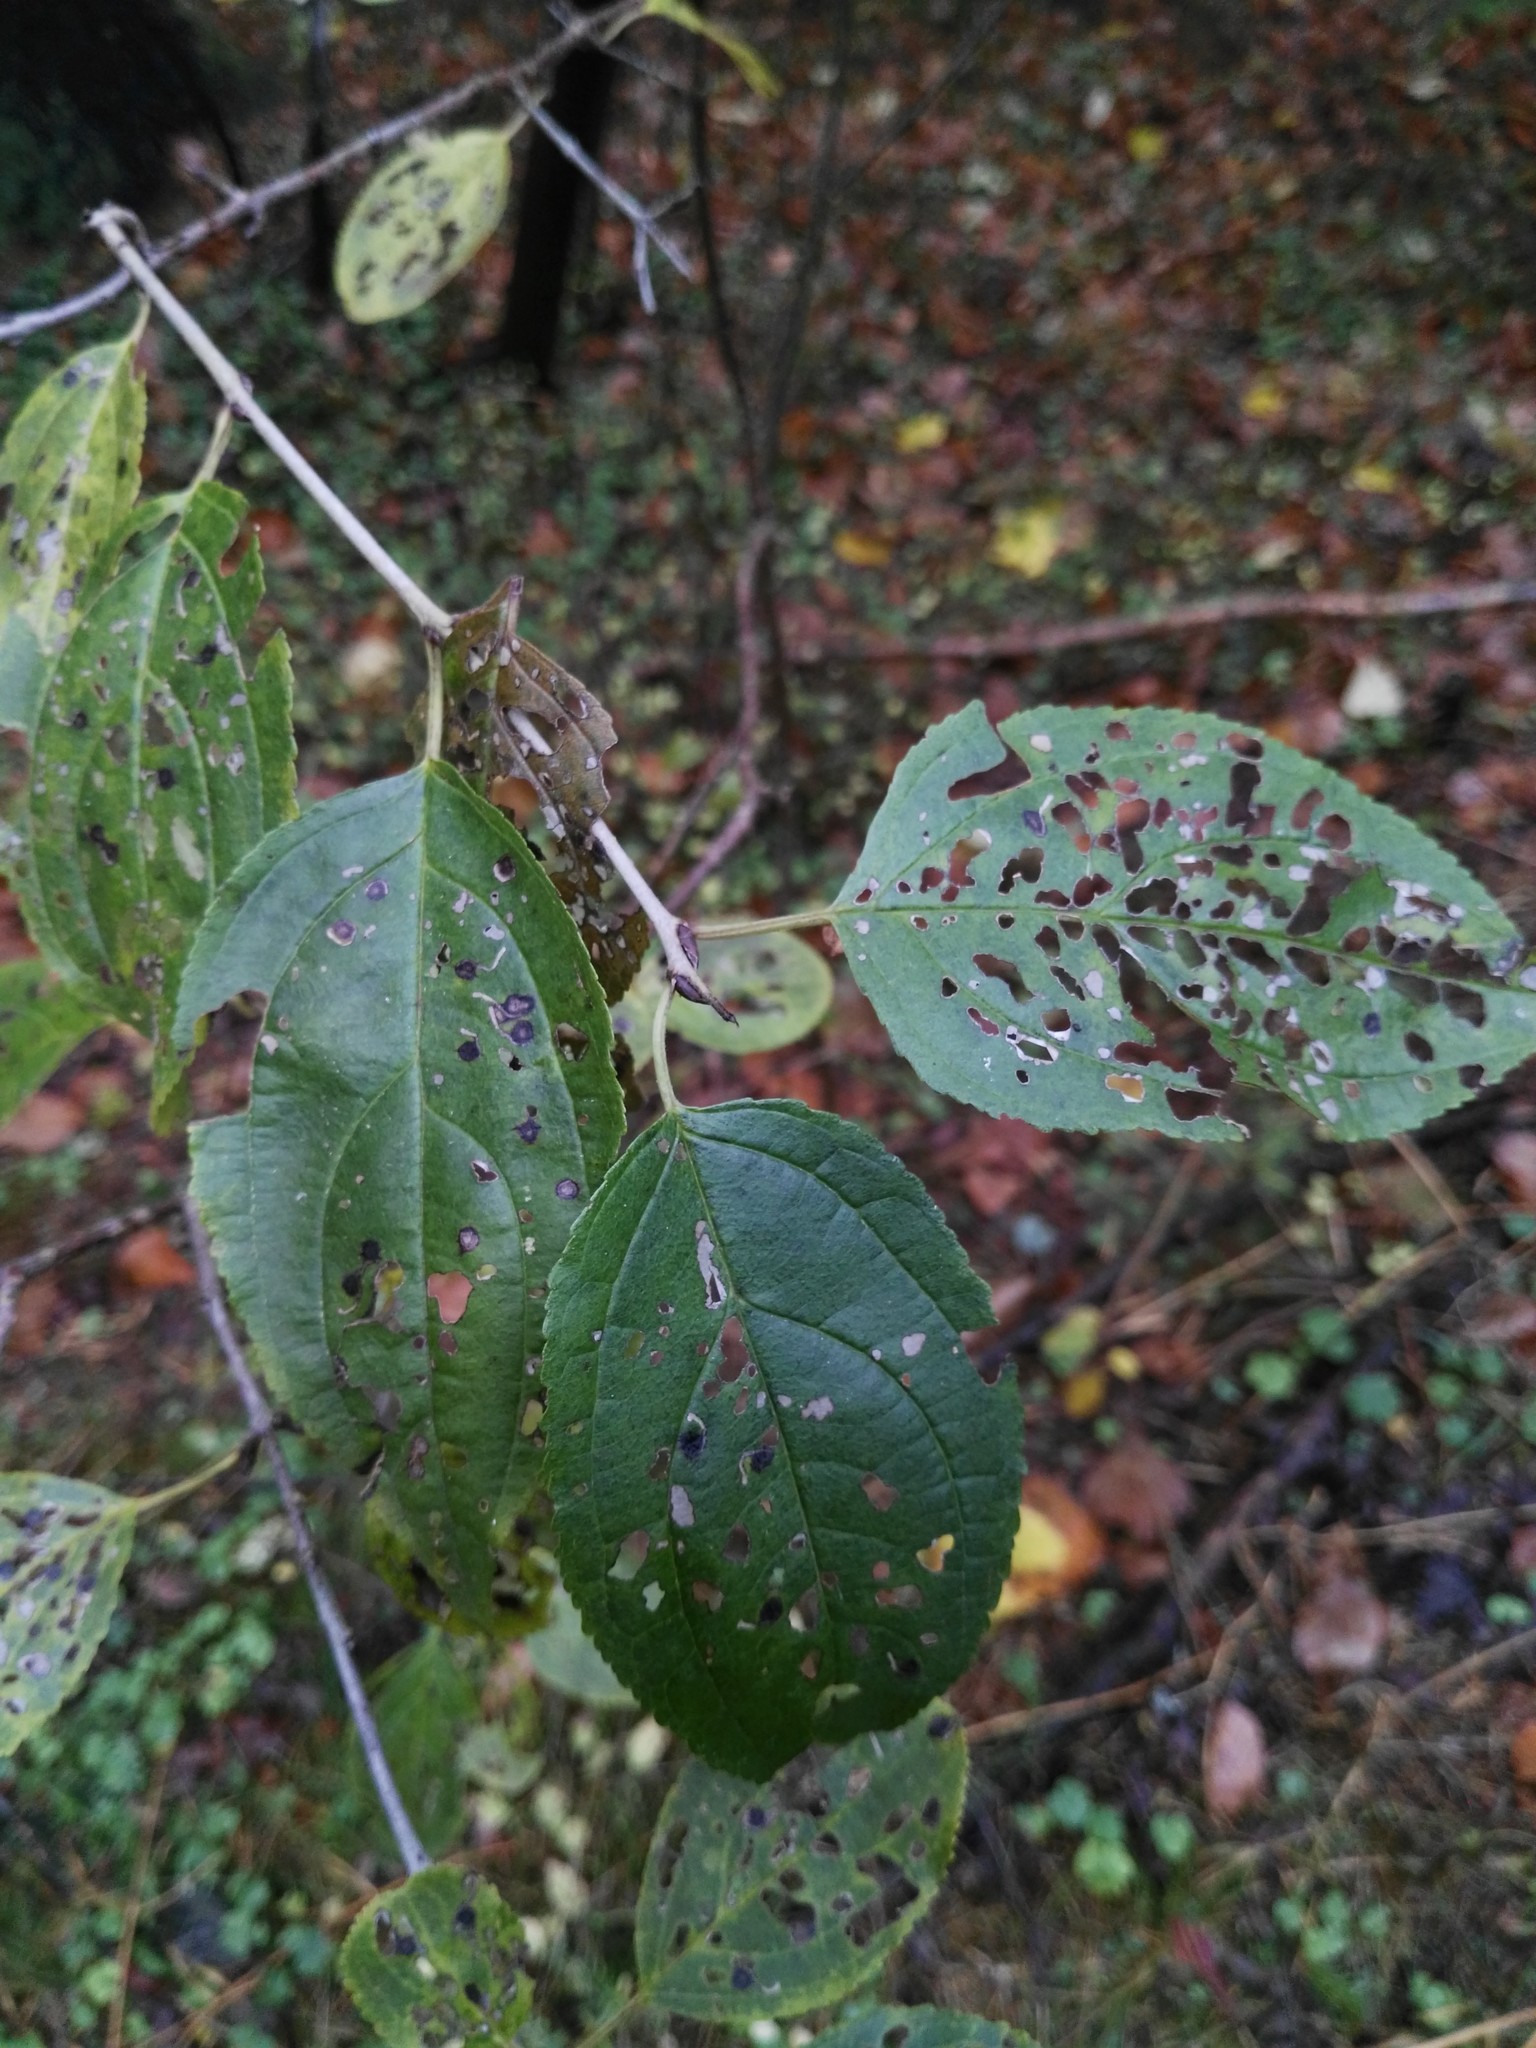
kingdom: Plantae
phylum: Tracheophyta
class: Magnoliopsida
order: Rosales
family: Rhamnaceae
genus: Rhamnus
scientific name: Rhamnus cathartica
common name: Common buckthorn
